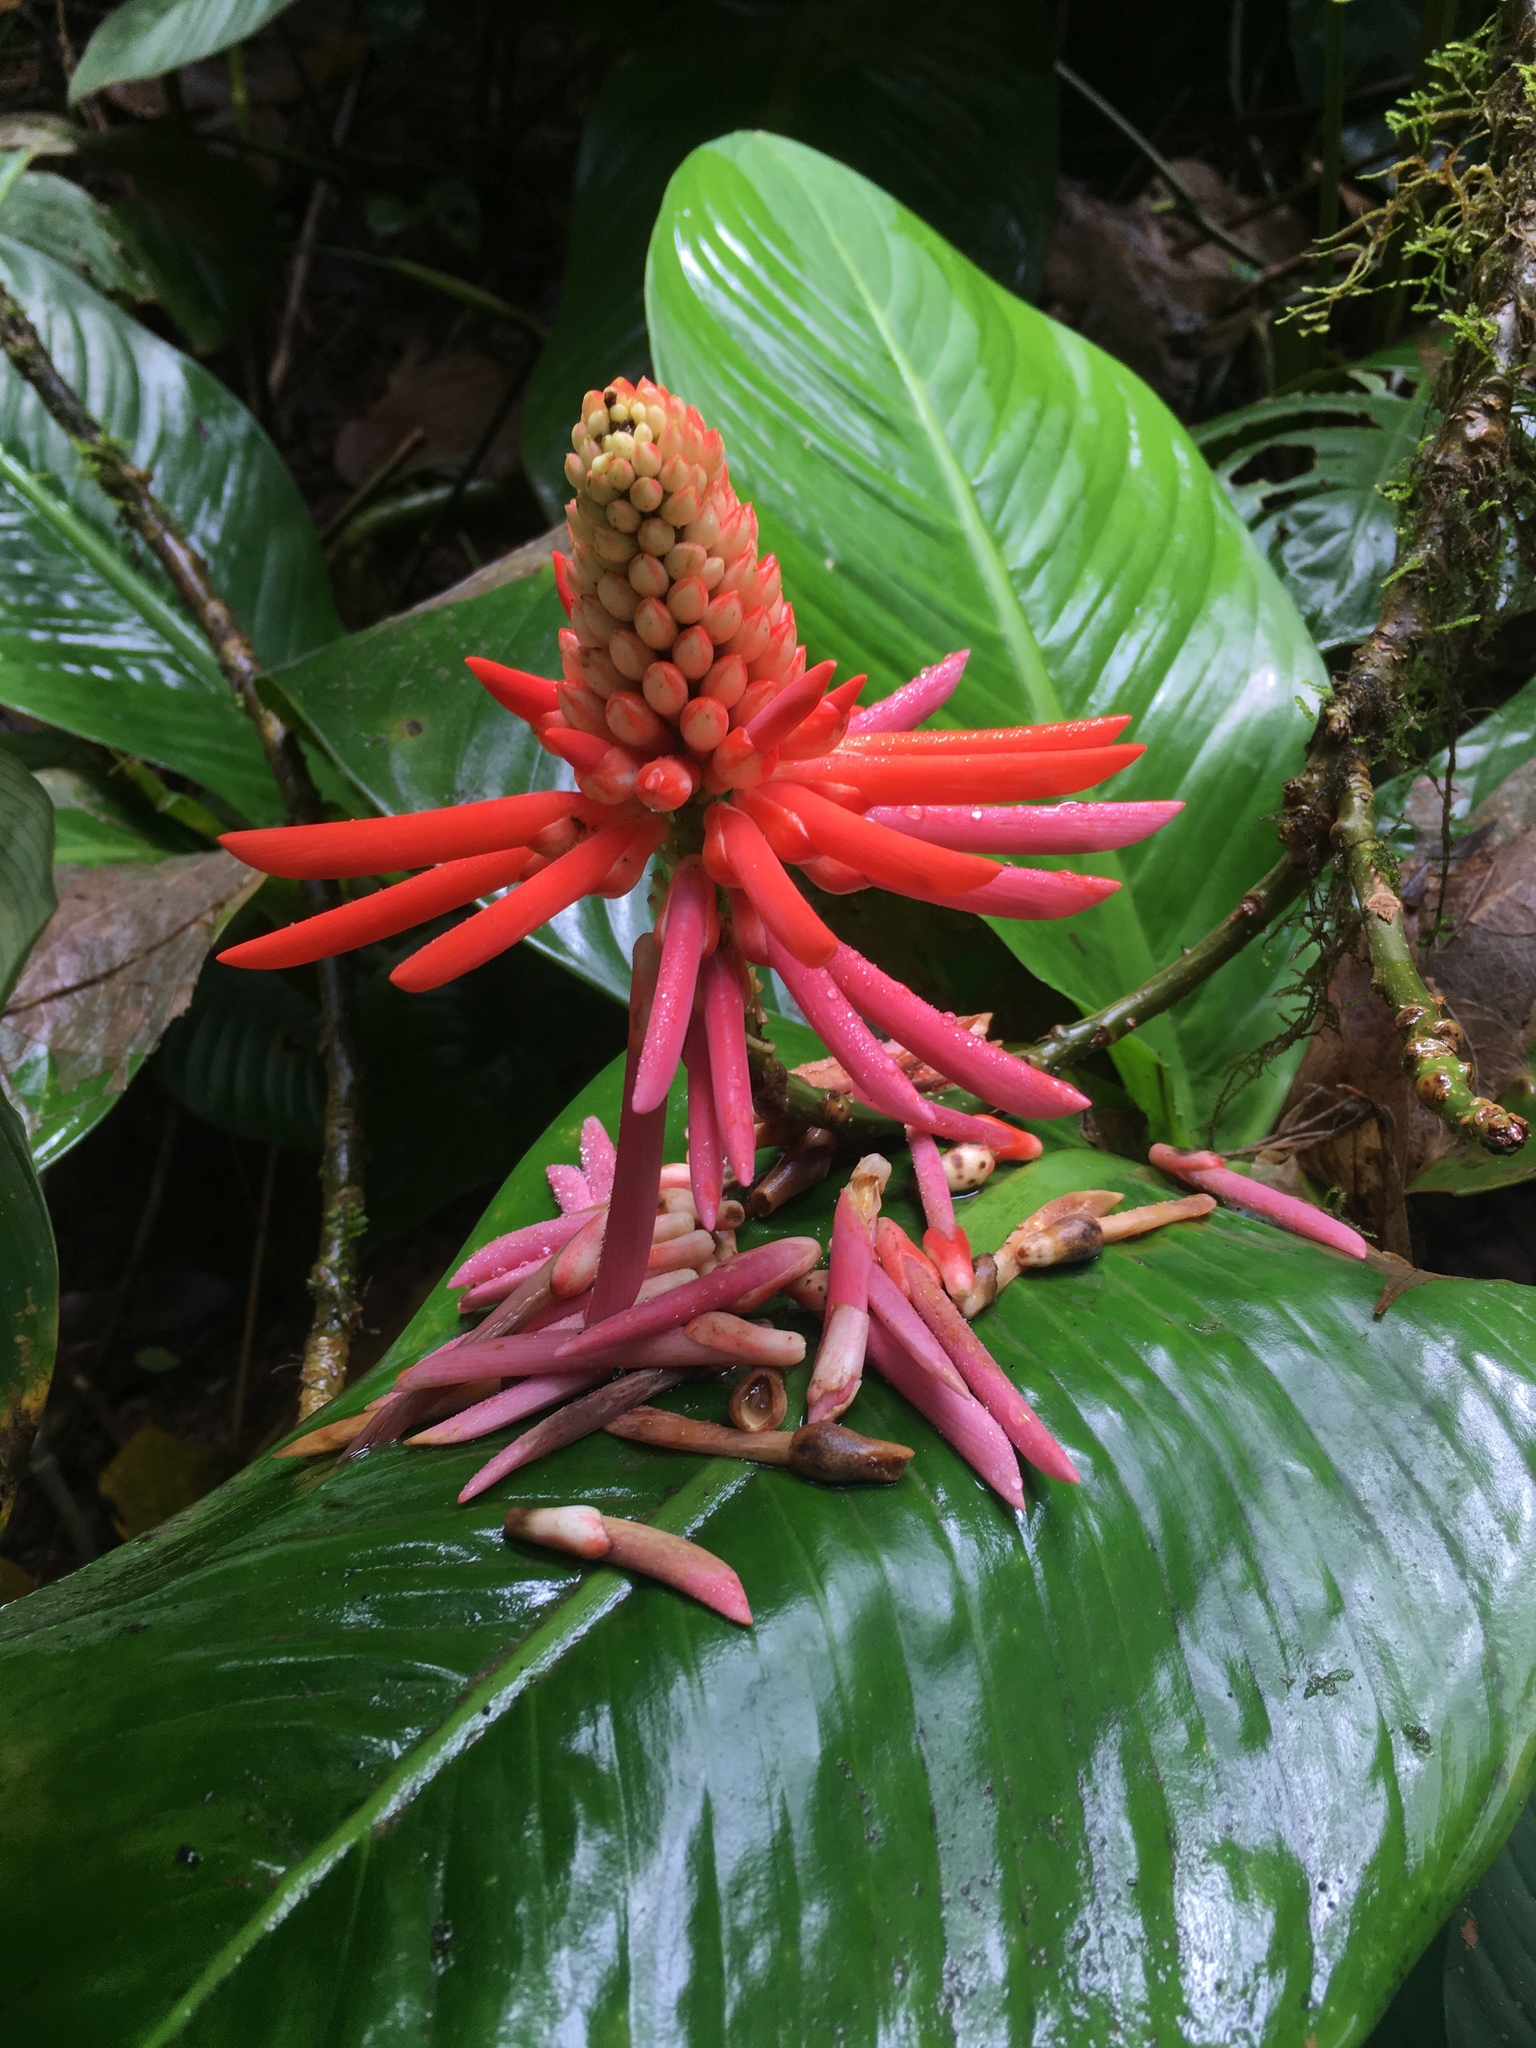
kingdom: Plantae
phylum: Tracheophyta
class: Magnoliopsida
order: Fabales
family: Fabaceae
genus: Erythrina
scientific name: Erythrina gibbosa
